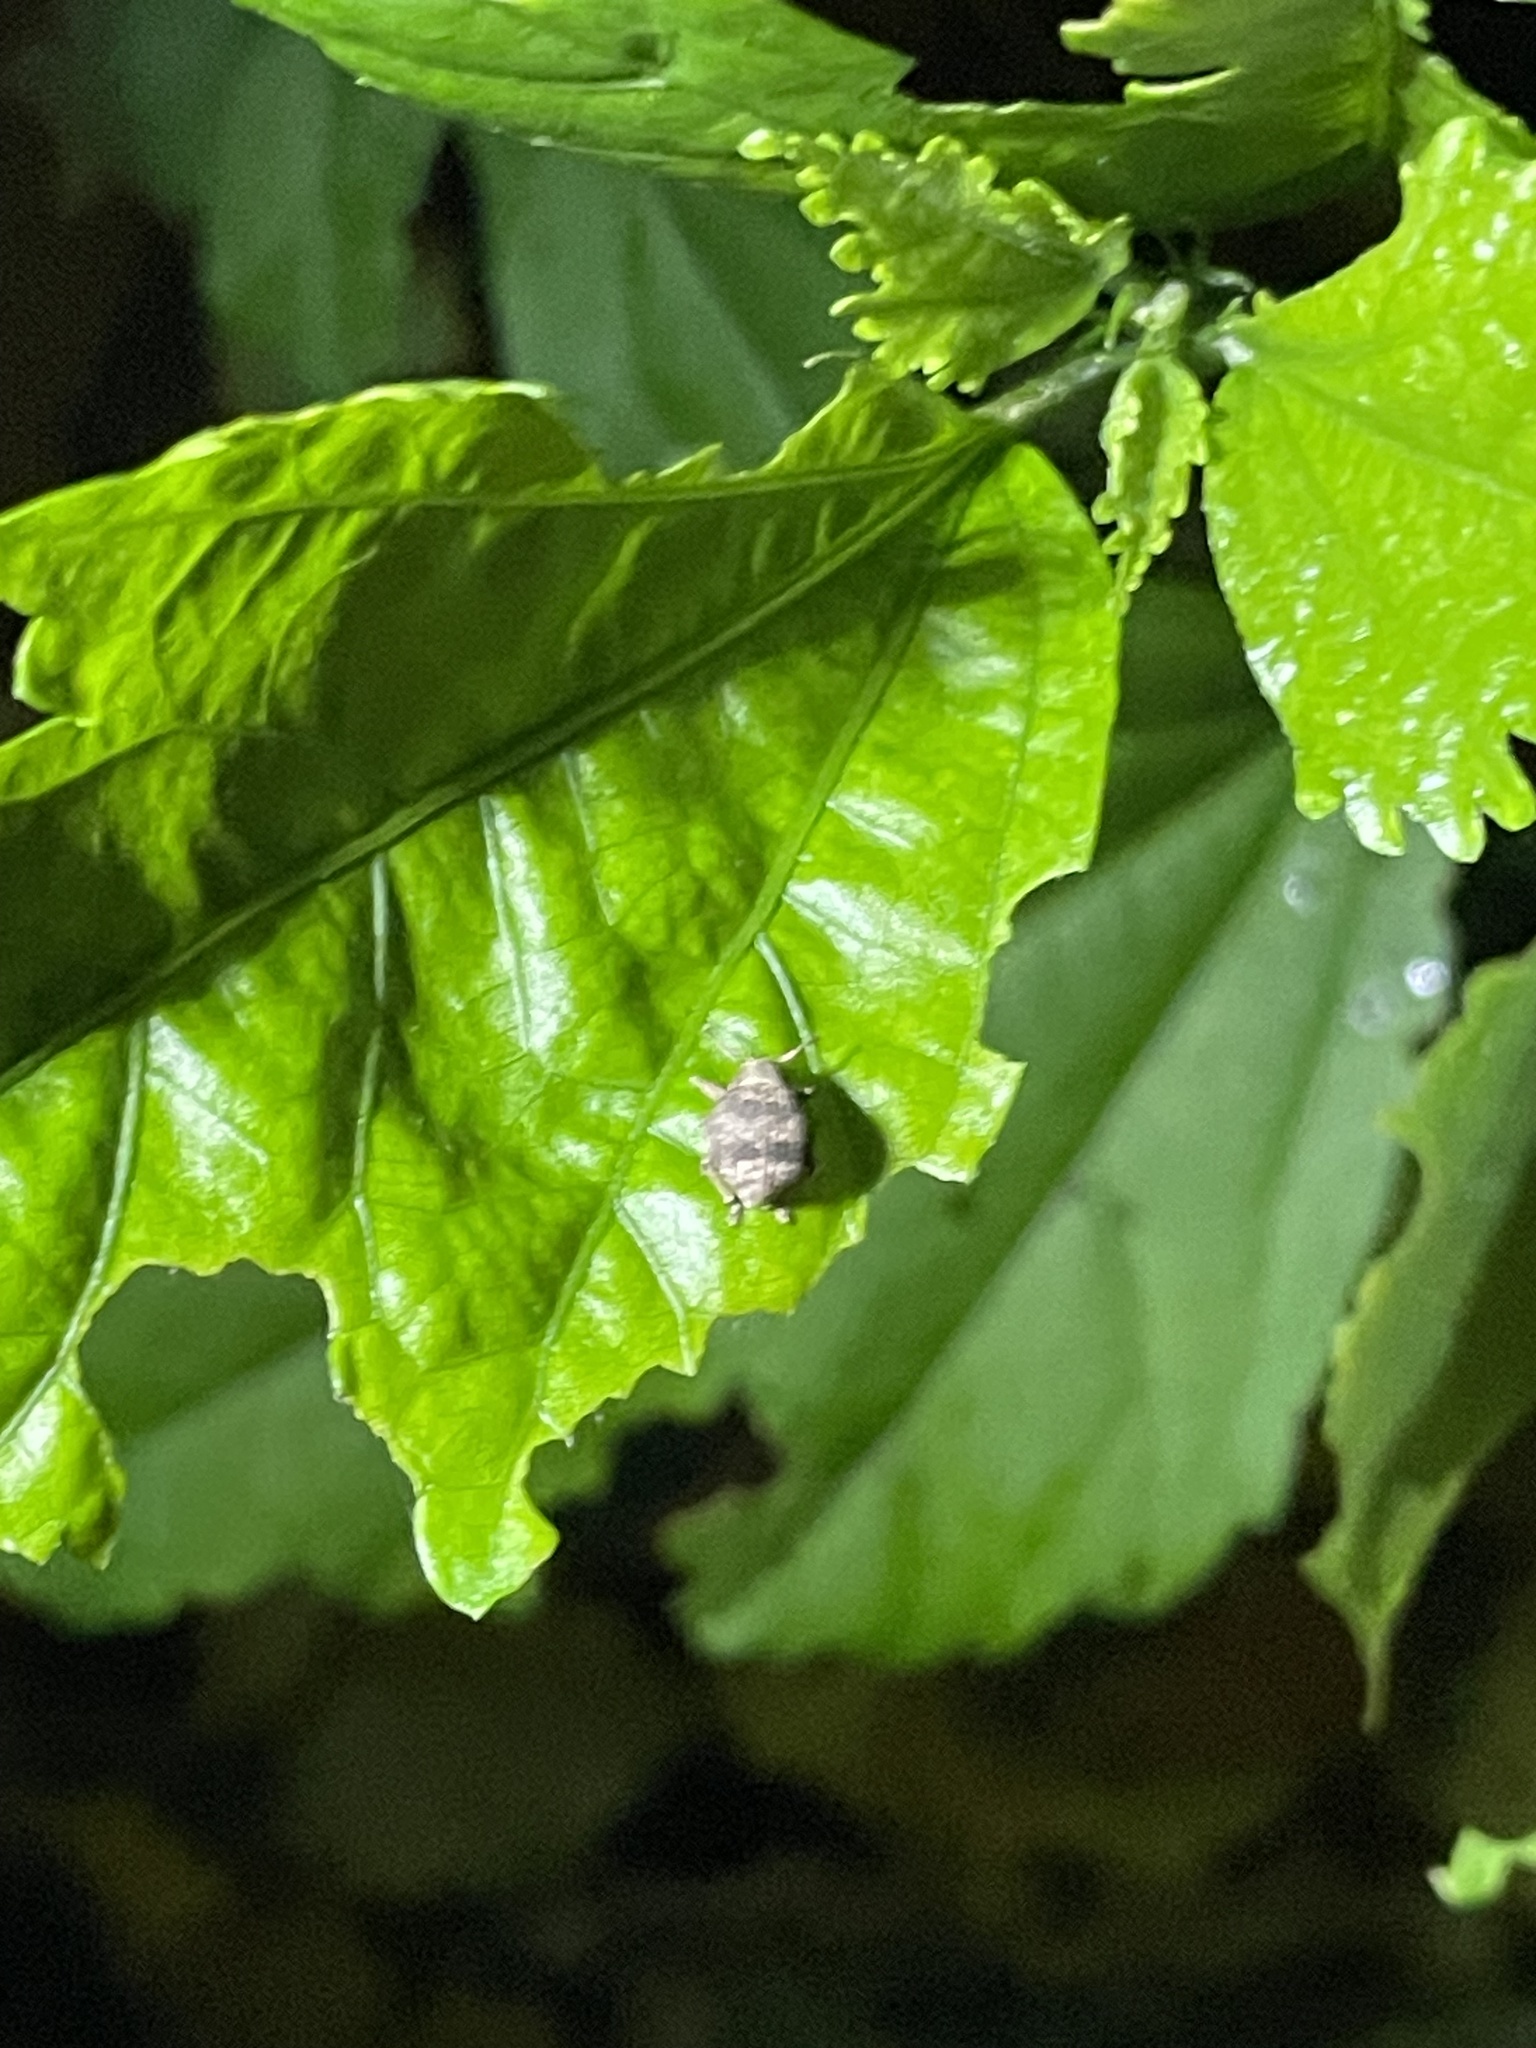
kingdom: Animalia
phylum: Arthropoda
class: Insecta
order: Coleoptera
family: Curculionidae
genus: Pseudocneorhinus
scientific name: Pseudocneorhinus bifasciatus
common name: Two-banded japanese weevil
